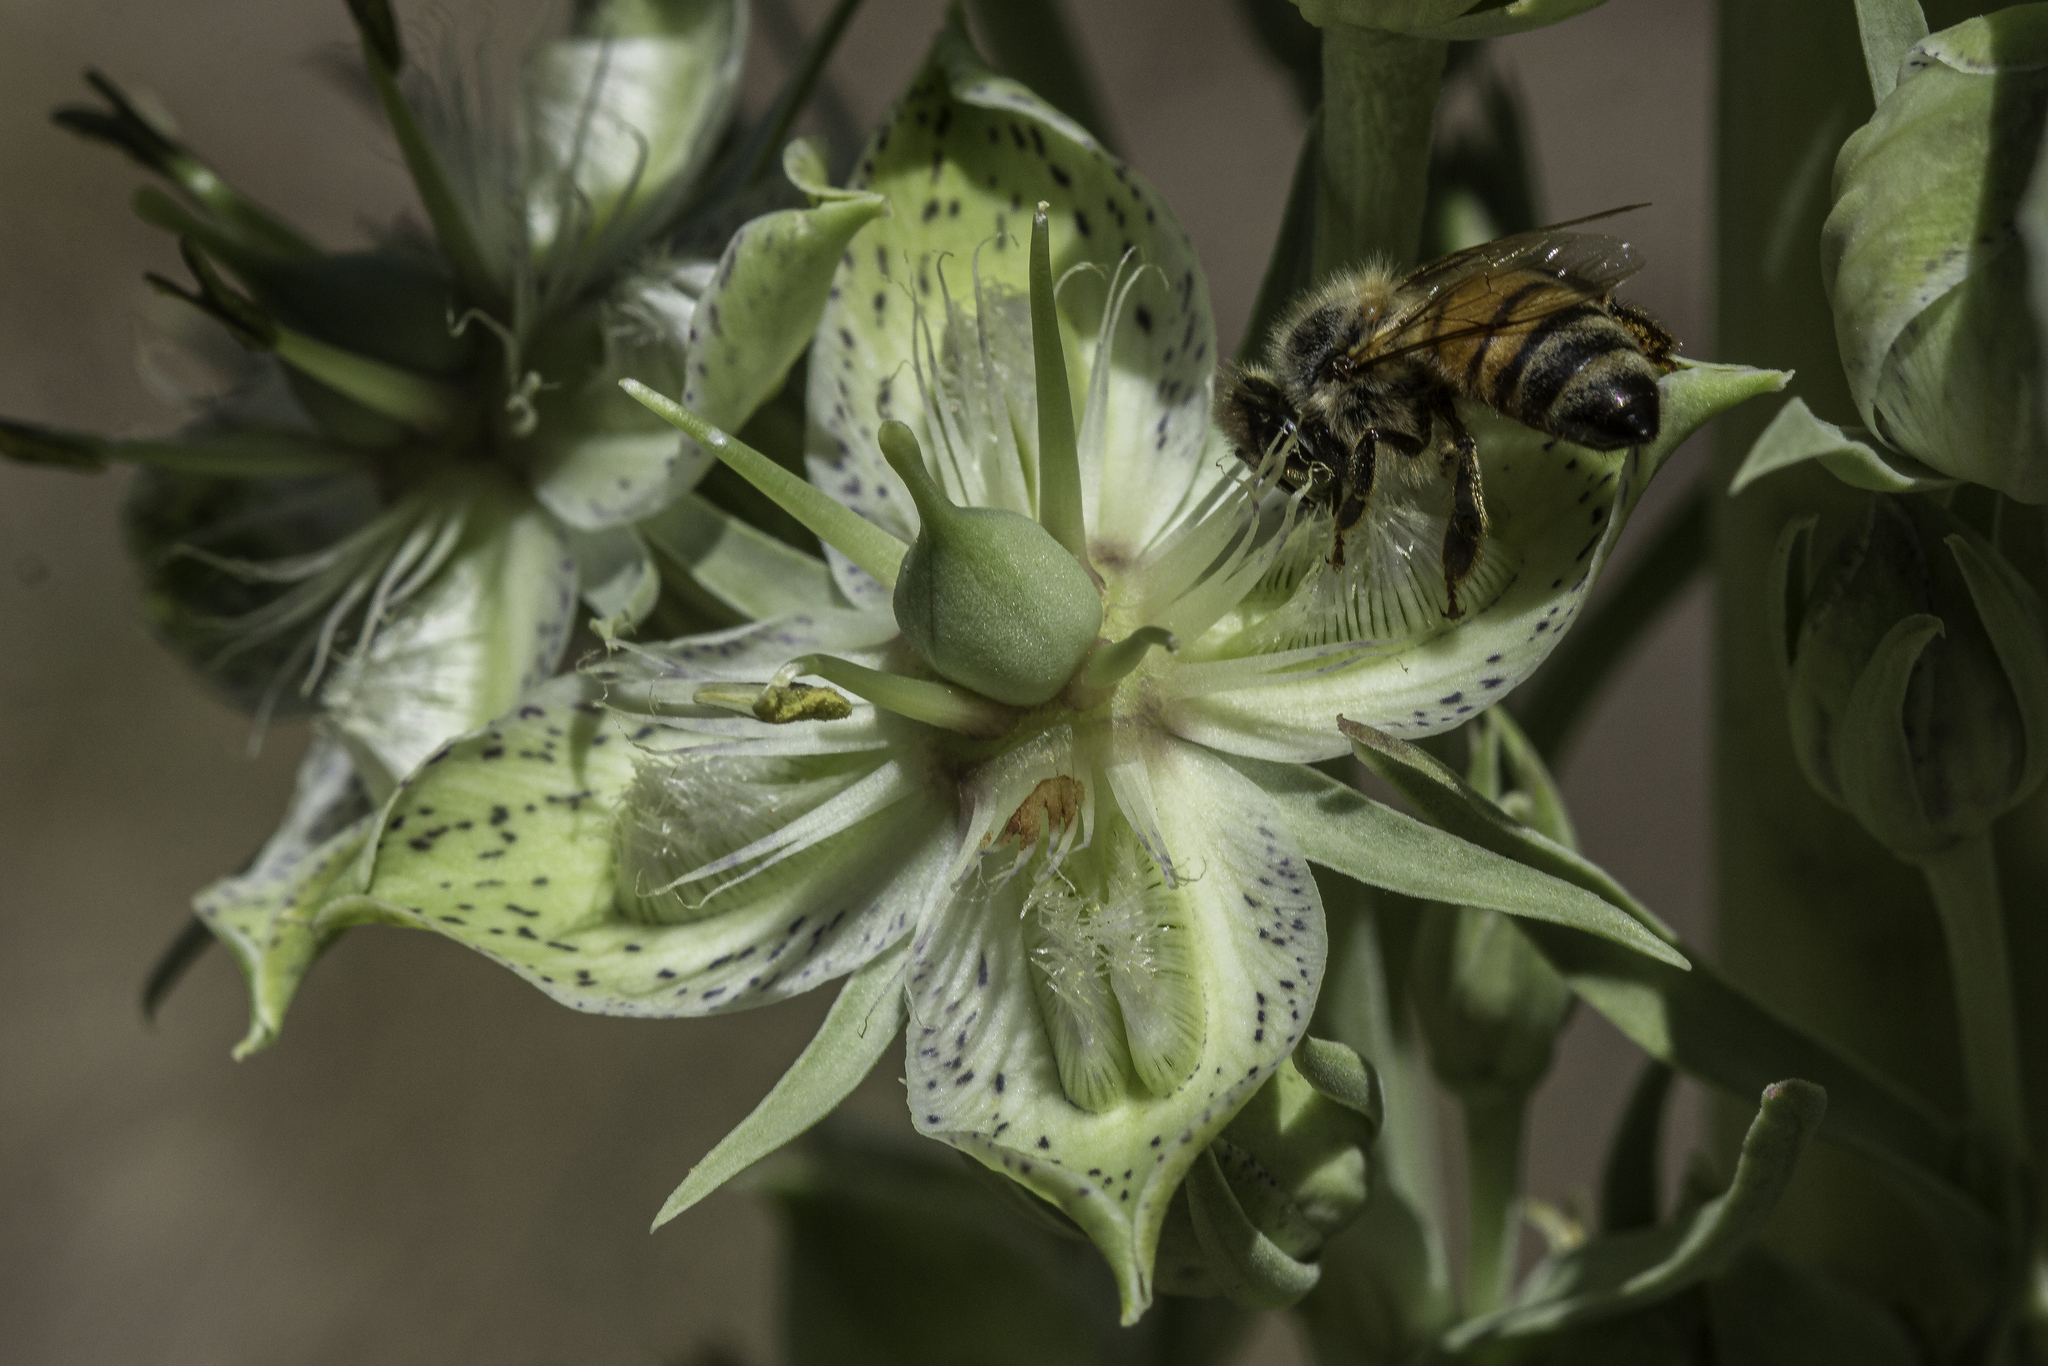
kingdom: Plantae
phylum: Tracheophyta
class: Magnoliopsida
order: Gentianales
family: Gentianaceae
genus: Frasera
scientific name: Frasera speciosa
